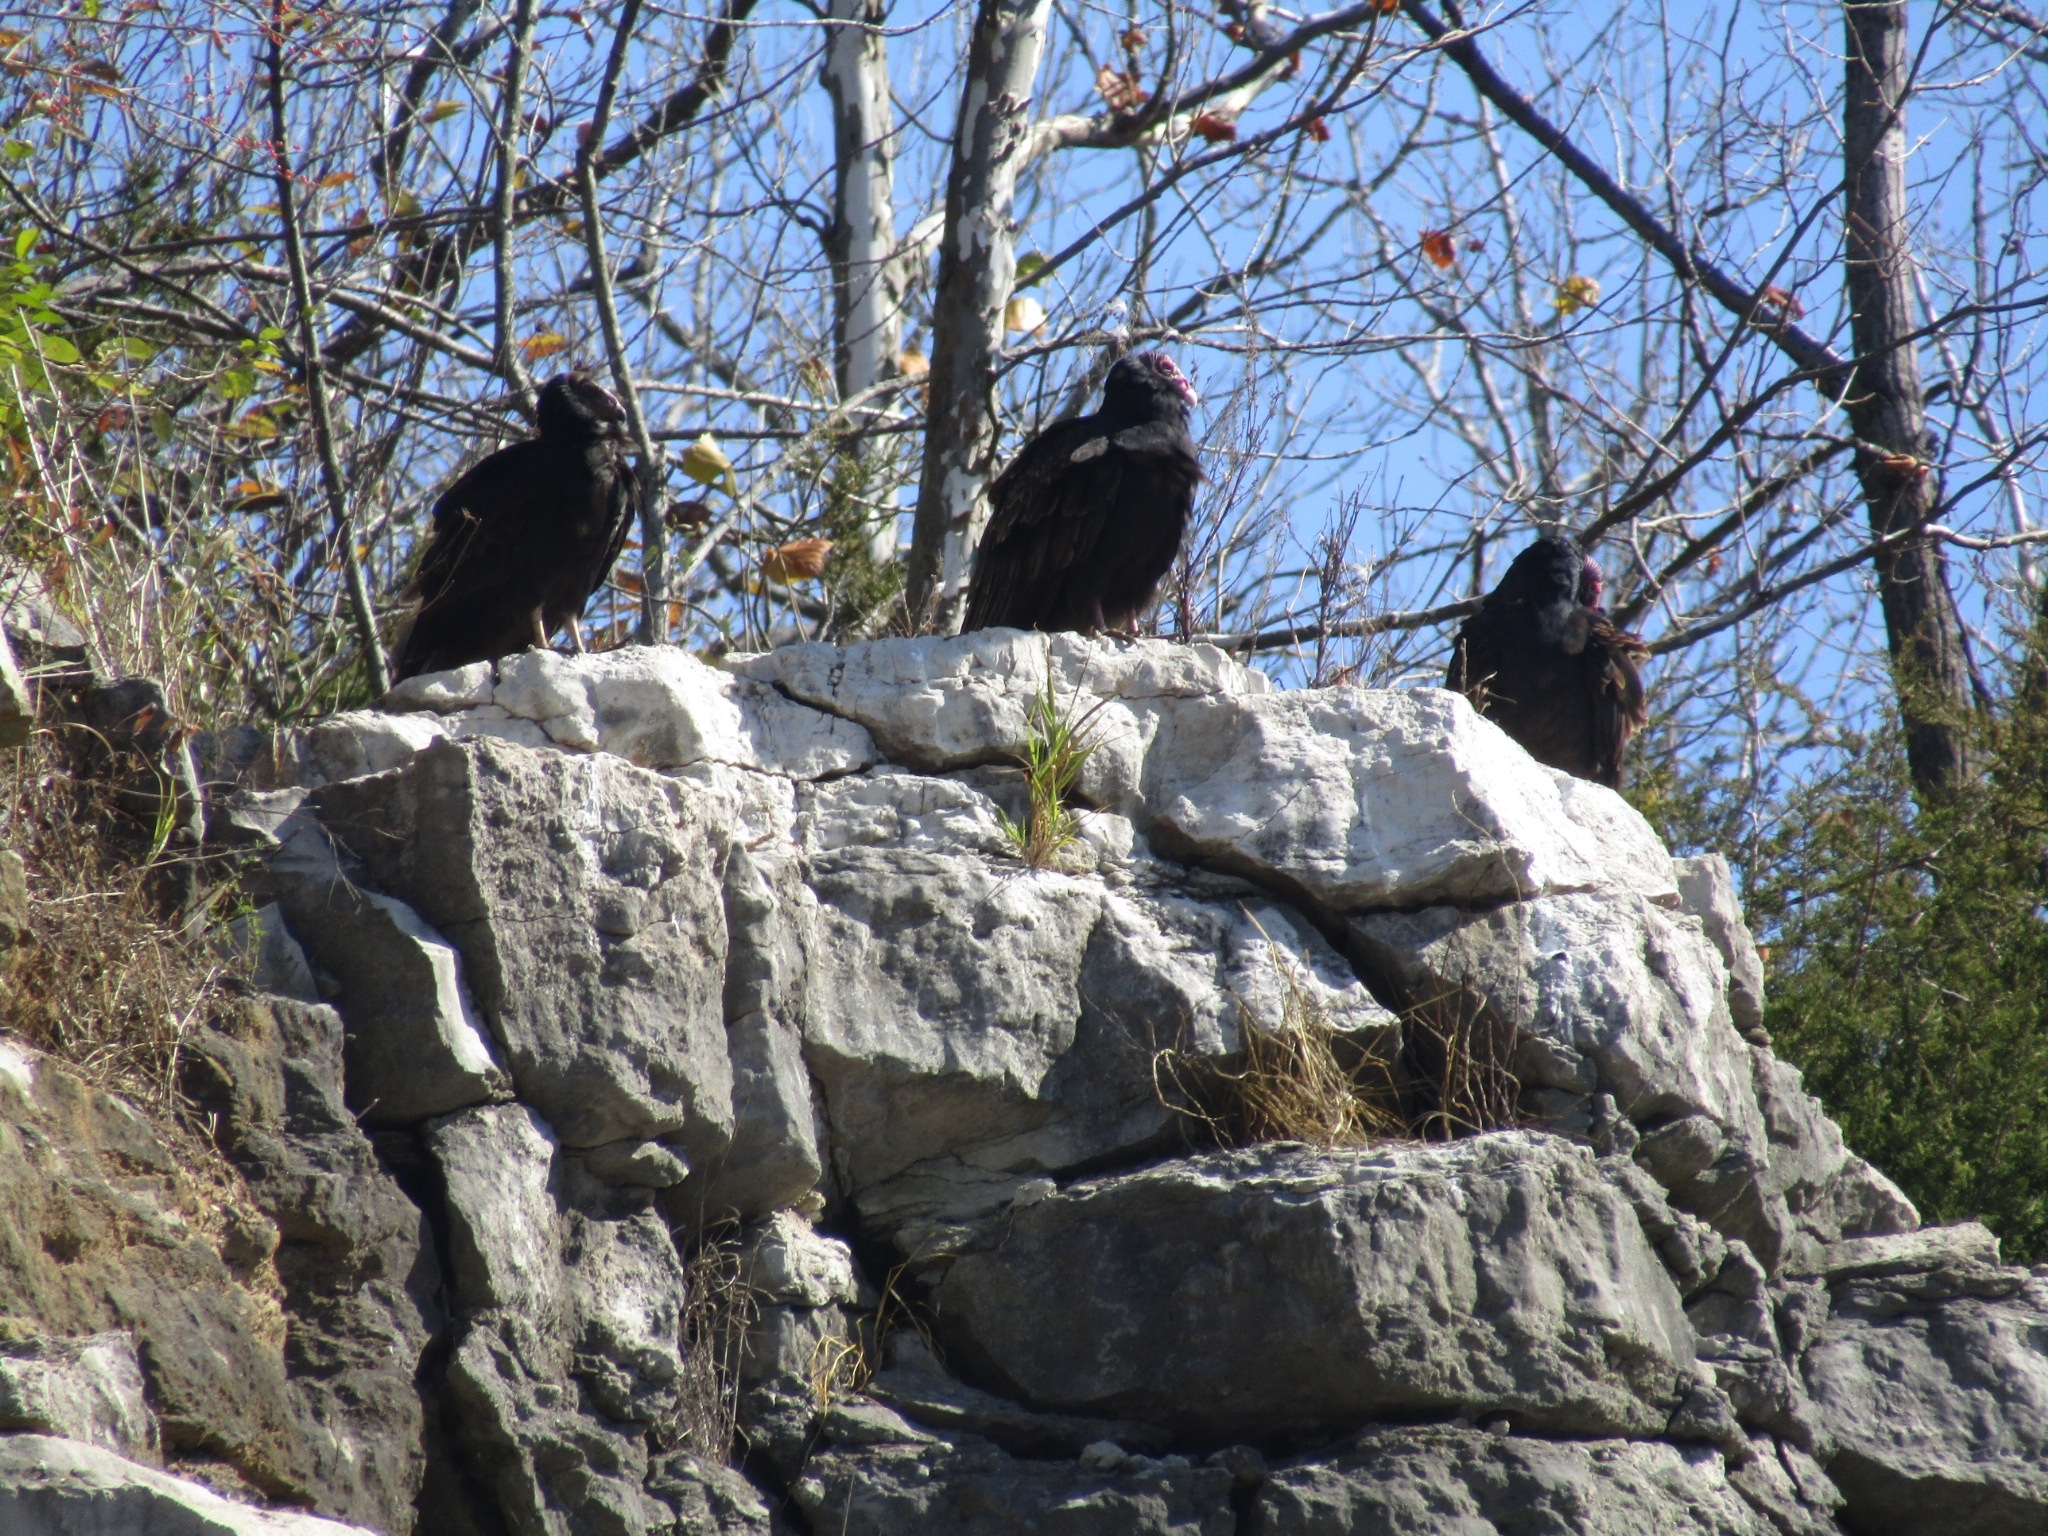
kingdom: Animalia
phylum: Chordata
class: Aves
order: Accipitriformes
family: Cathartidae
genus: Cathartes
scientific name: Cathartes aura
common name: Turkey vulture
